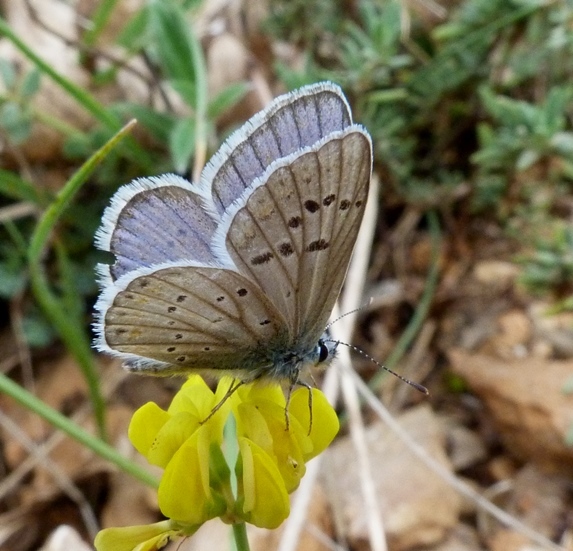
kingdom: Animalia
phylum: Arthropoda
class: Insecta
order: Lepidoptera
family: Lycaenidae
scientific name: Lycaenidae
